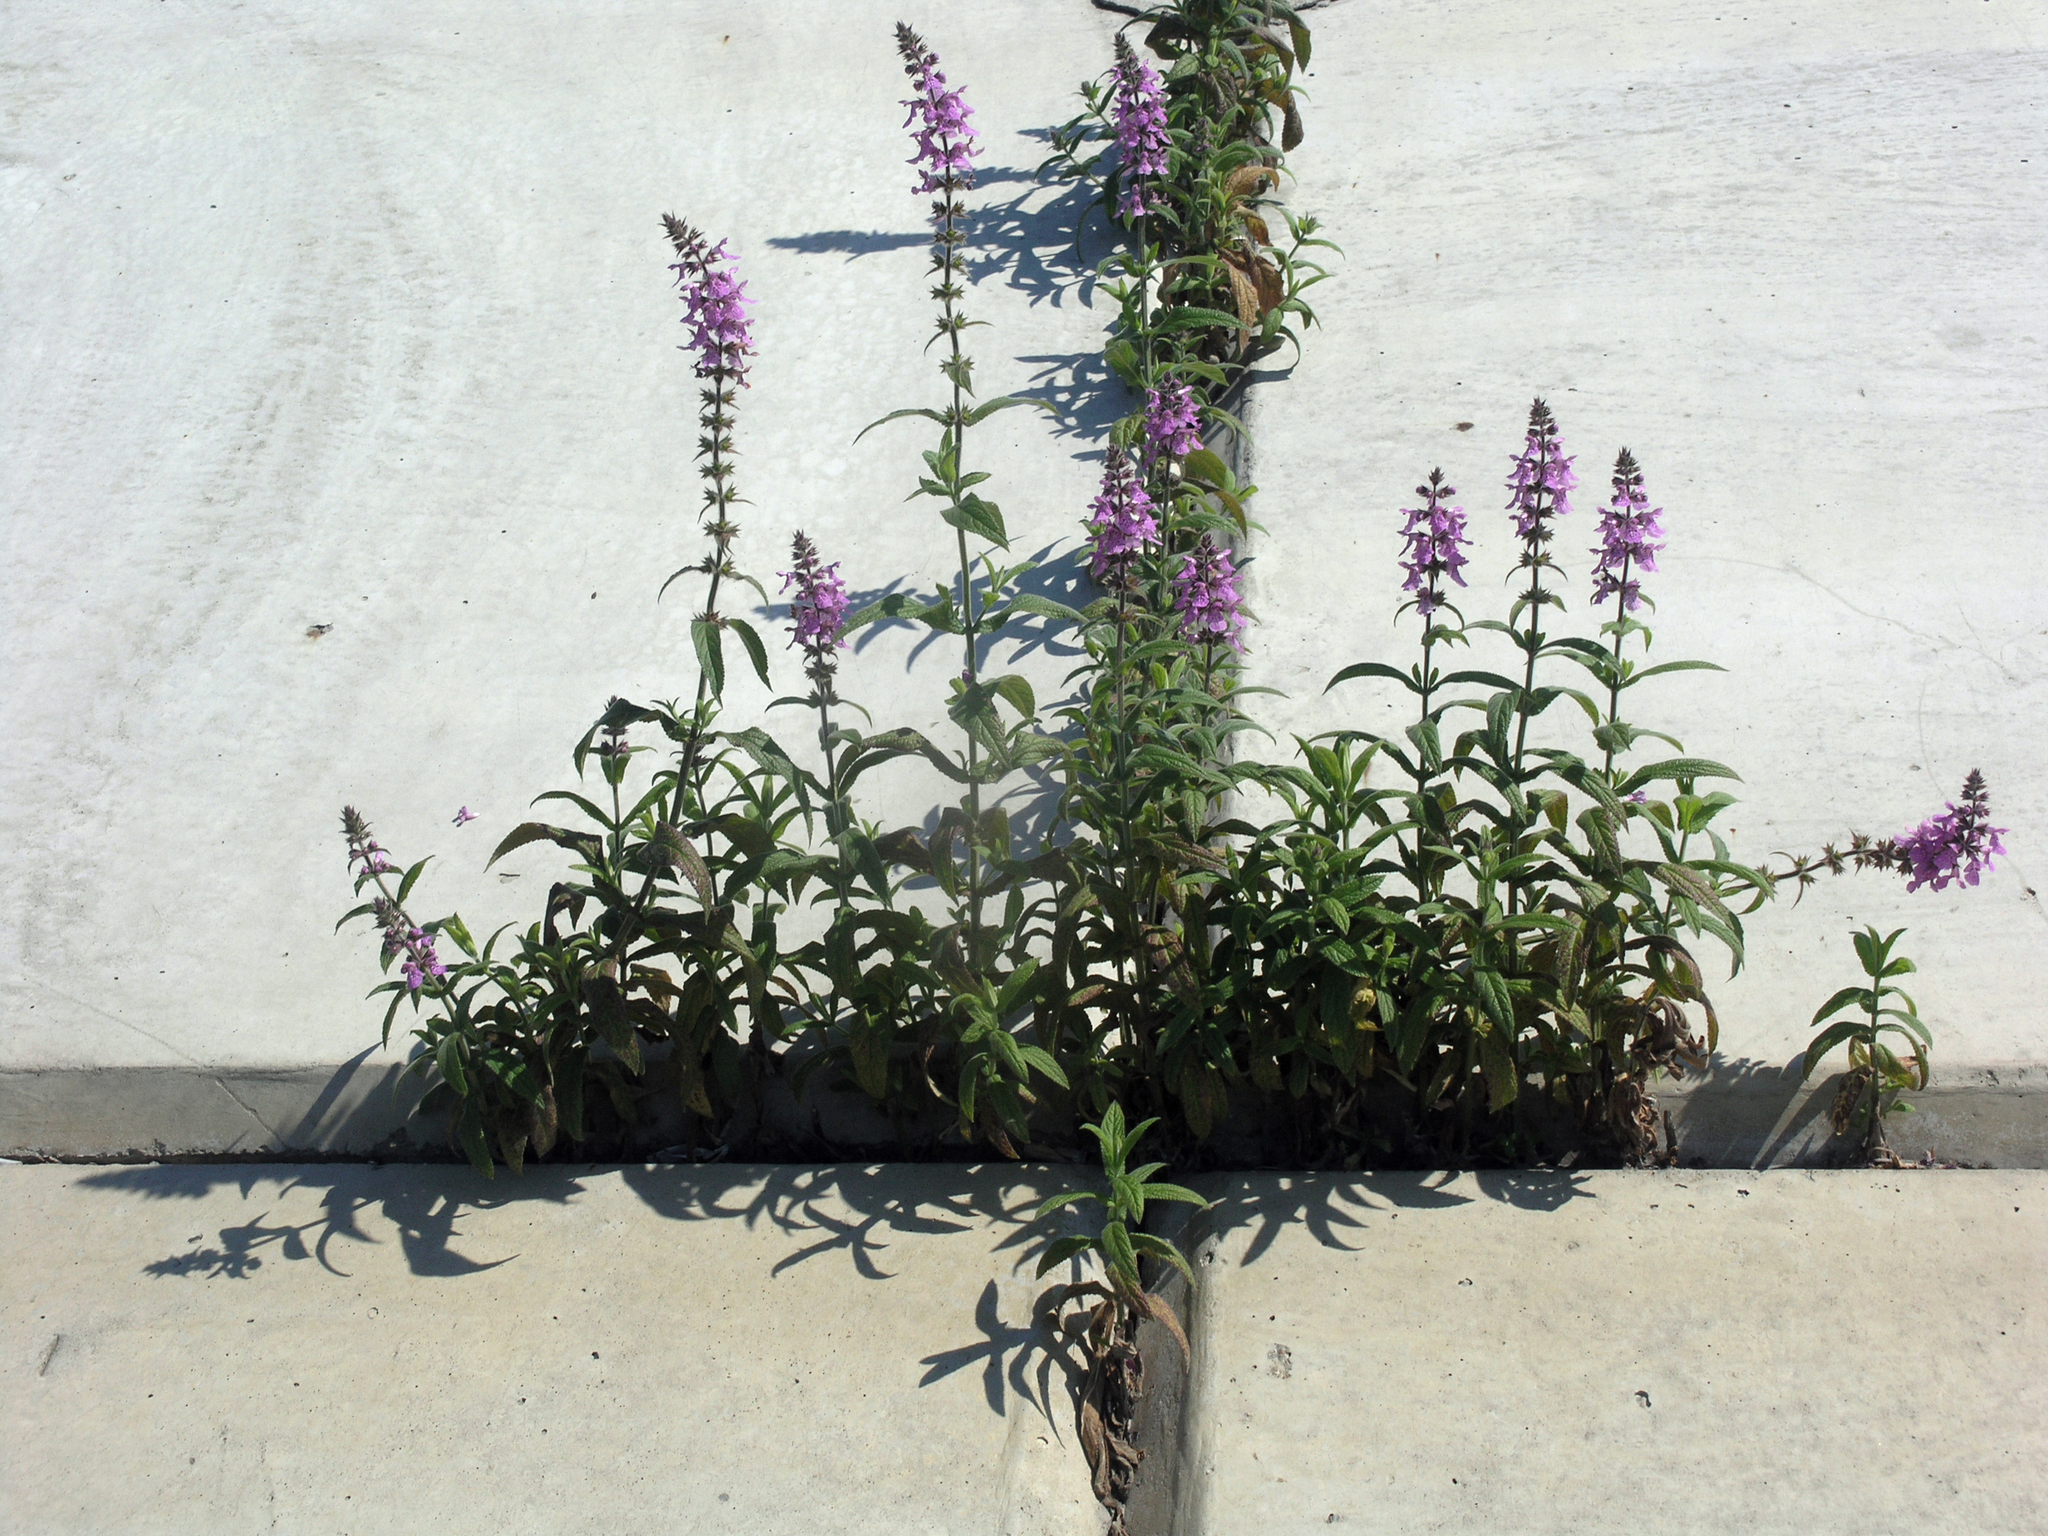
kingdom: Plantae
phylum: Tracheophyta
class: Magnoliopsida
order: Lamiales
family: Lamiaceae
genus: Stachys
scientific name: Stachys palustris
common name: Marsh woundwort
